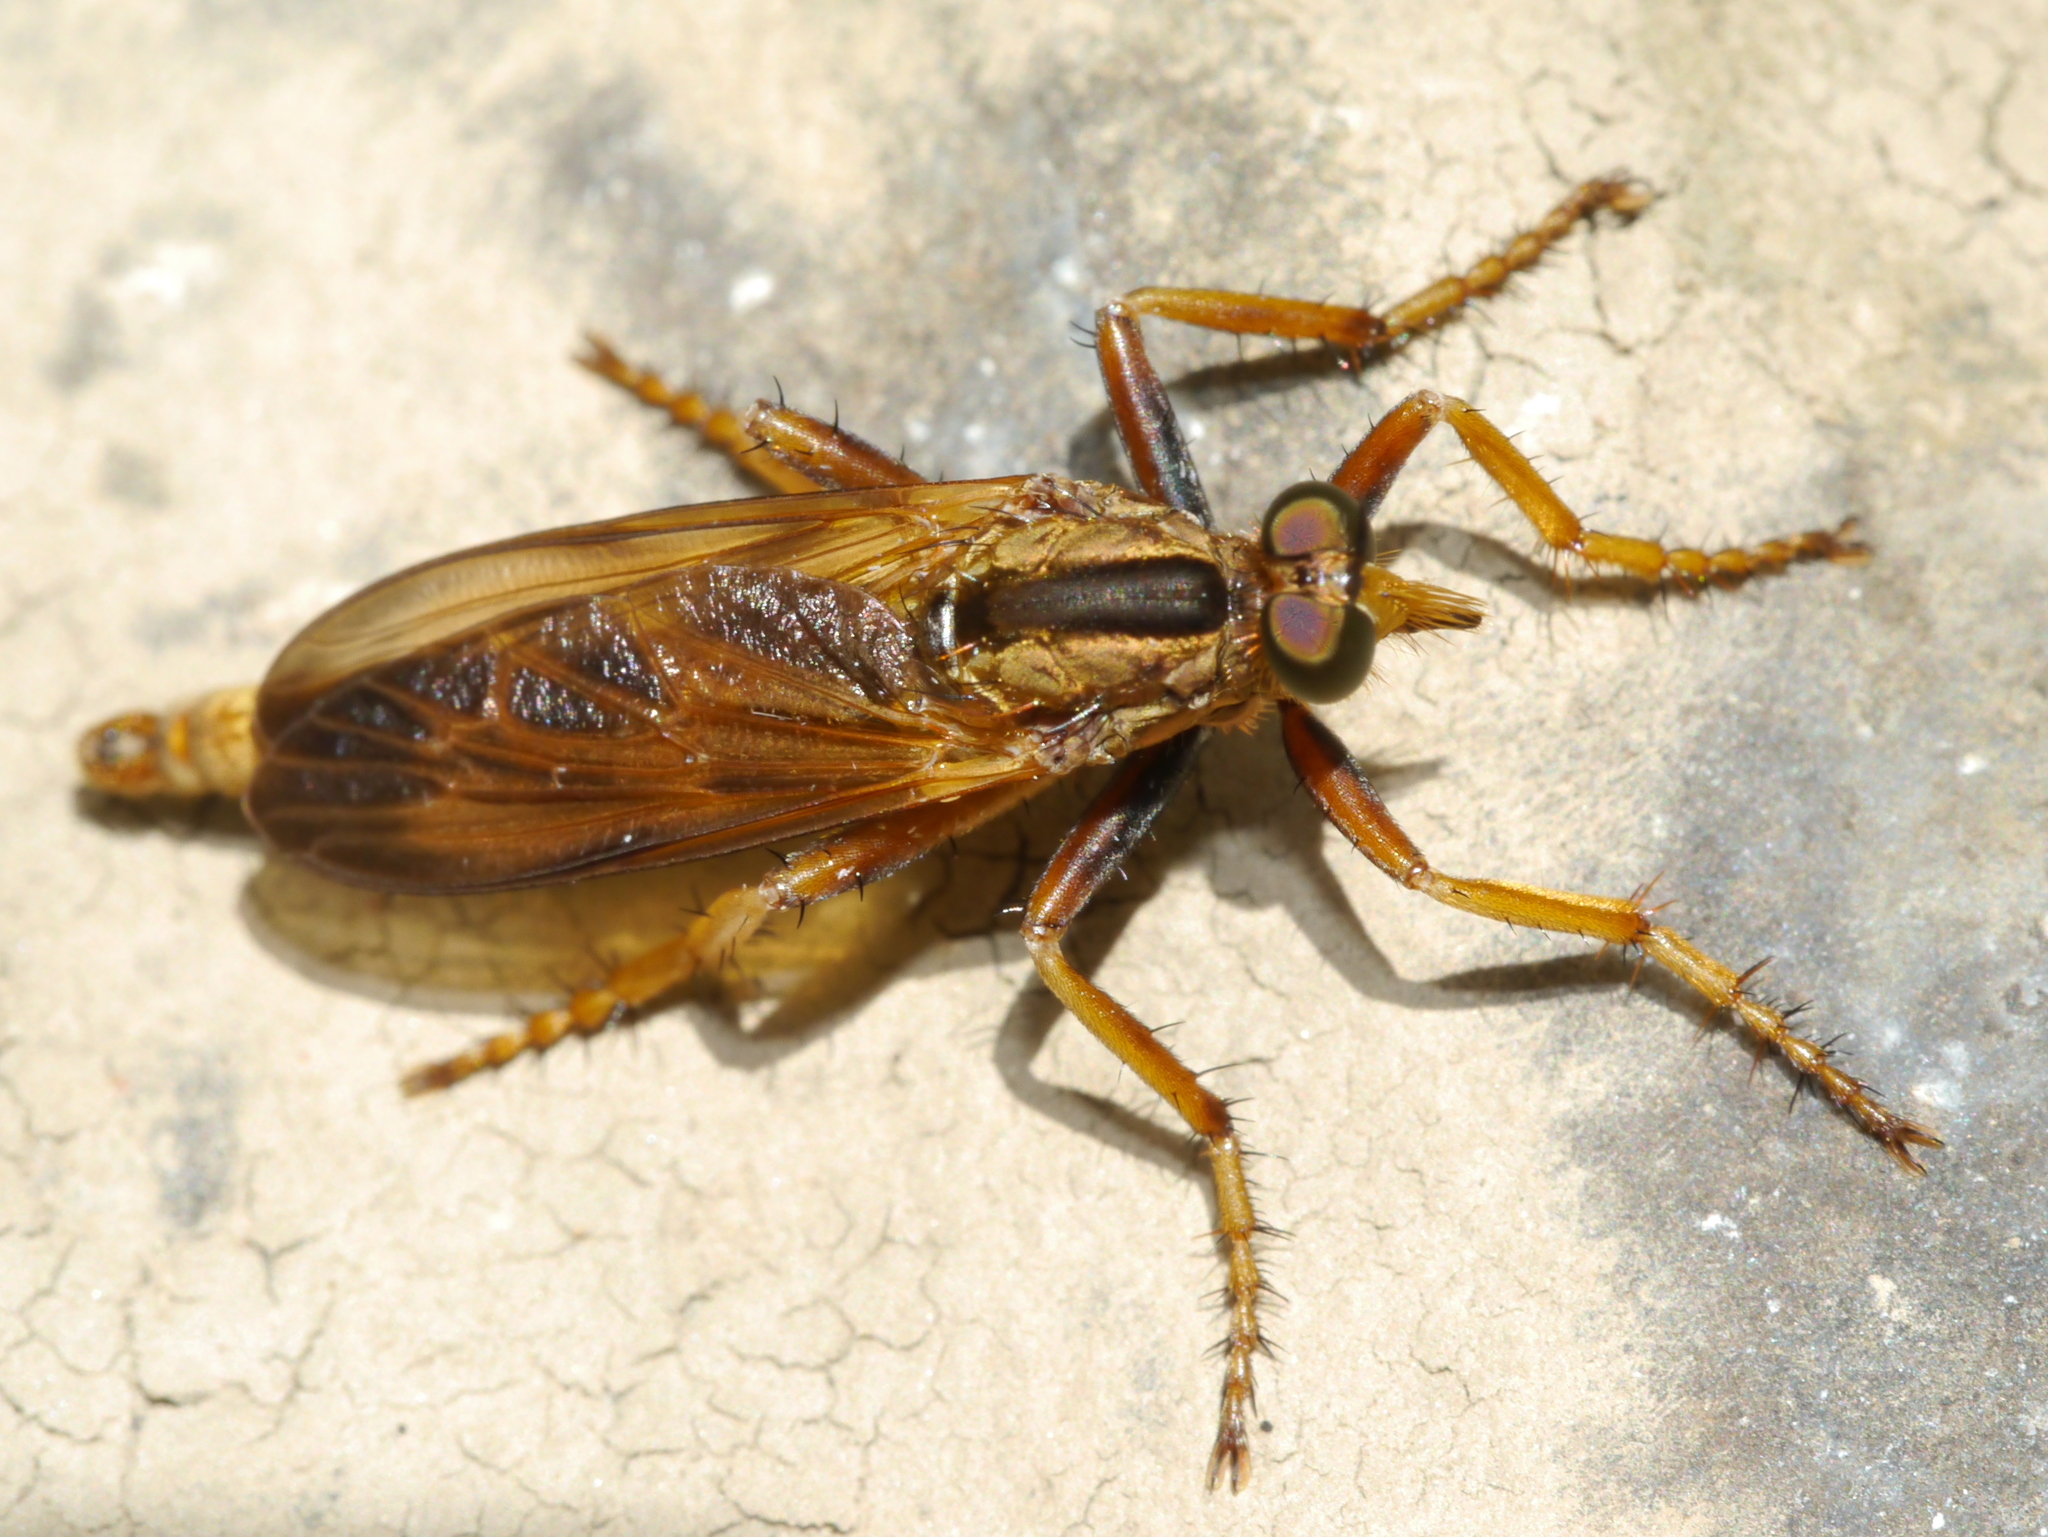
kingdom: Animalia
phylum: Arthropoda
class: Insecta
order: Diptera
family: Asilidae
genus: Asilus
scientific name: Asilus sericeus
